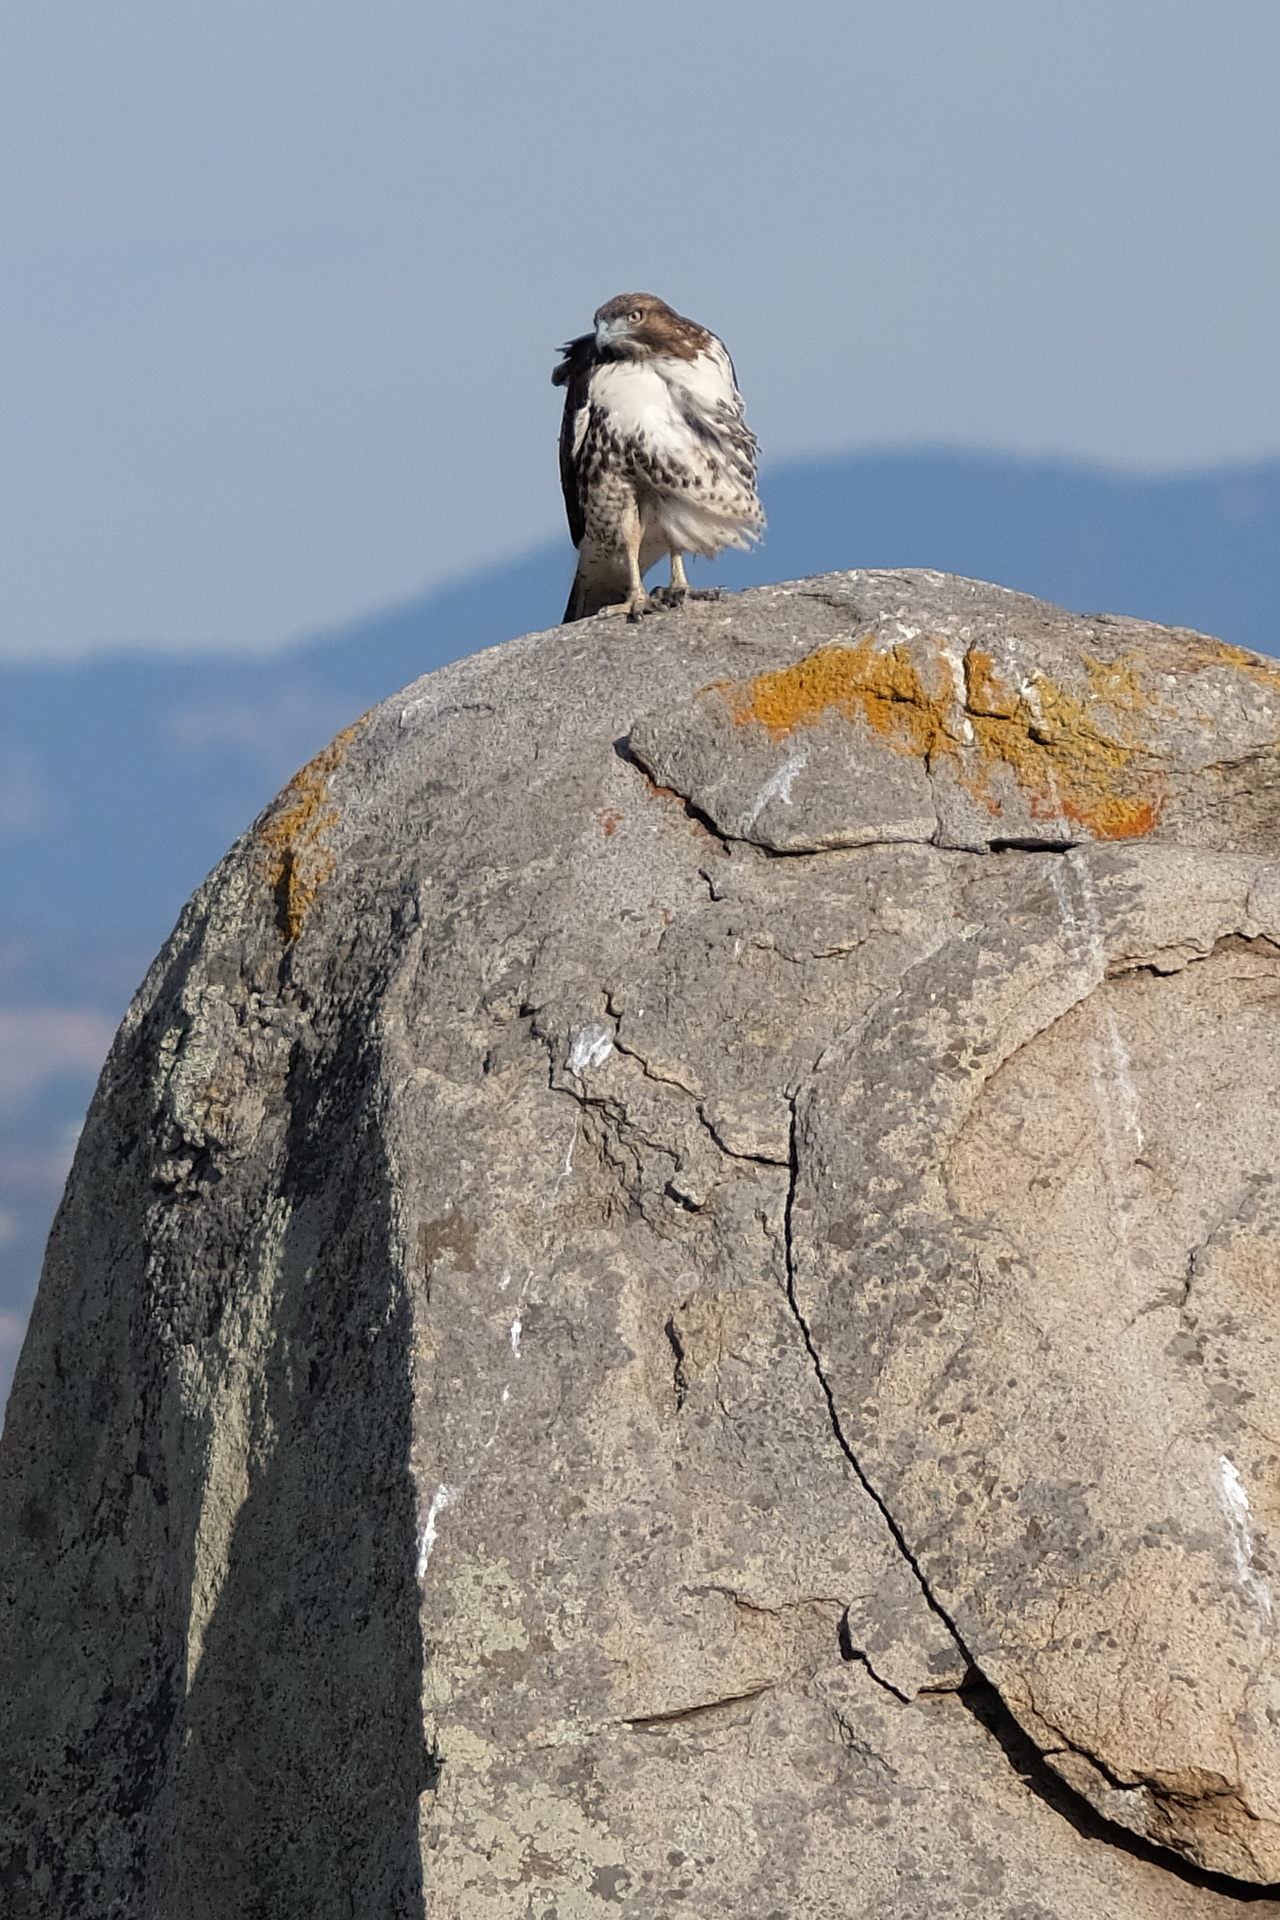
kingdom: Animalia
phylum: Chordata
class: Aves
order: Accipitriformes
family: Accipitridae
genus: Buteo
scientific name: Buteo jamaicensis
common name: Red-tailed hawk
